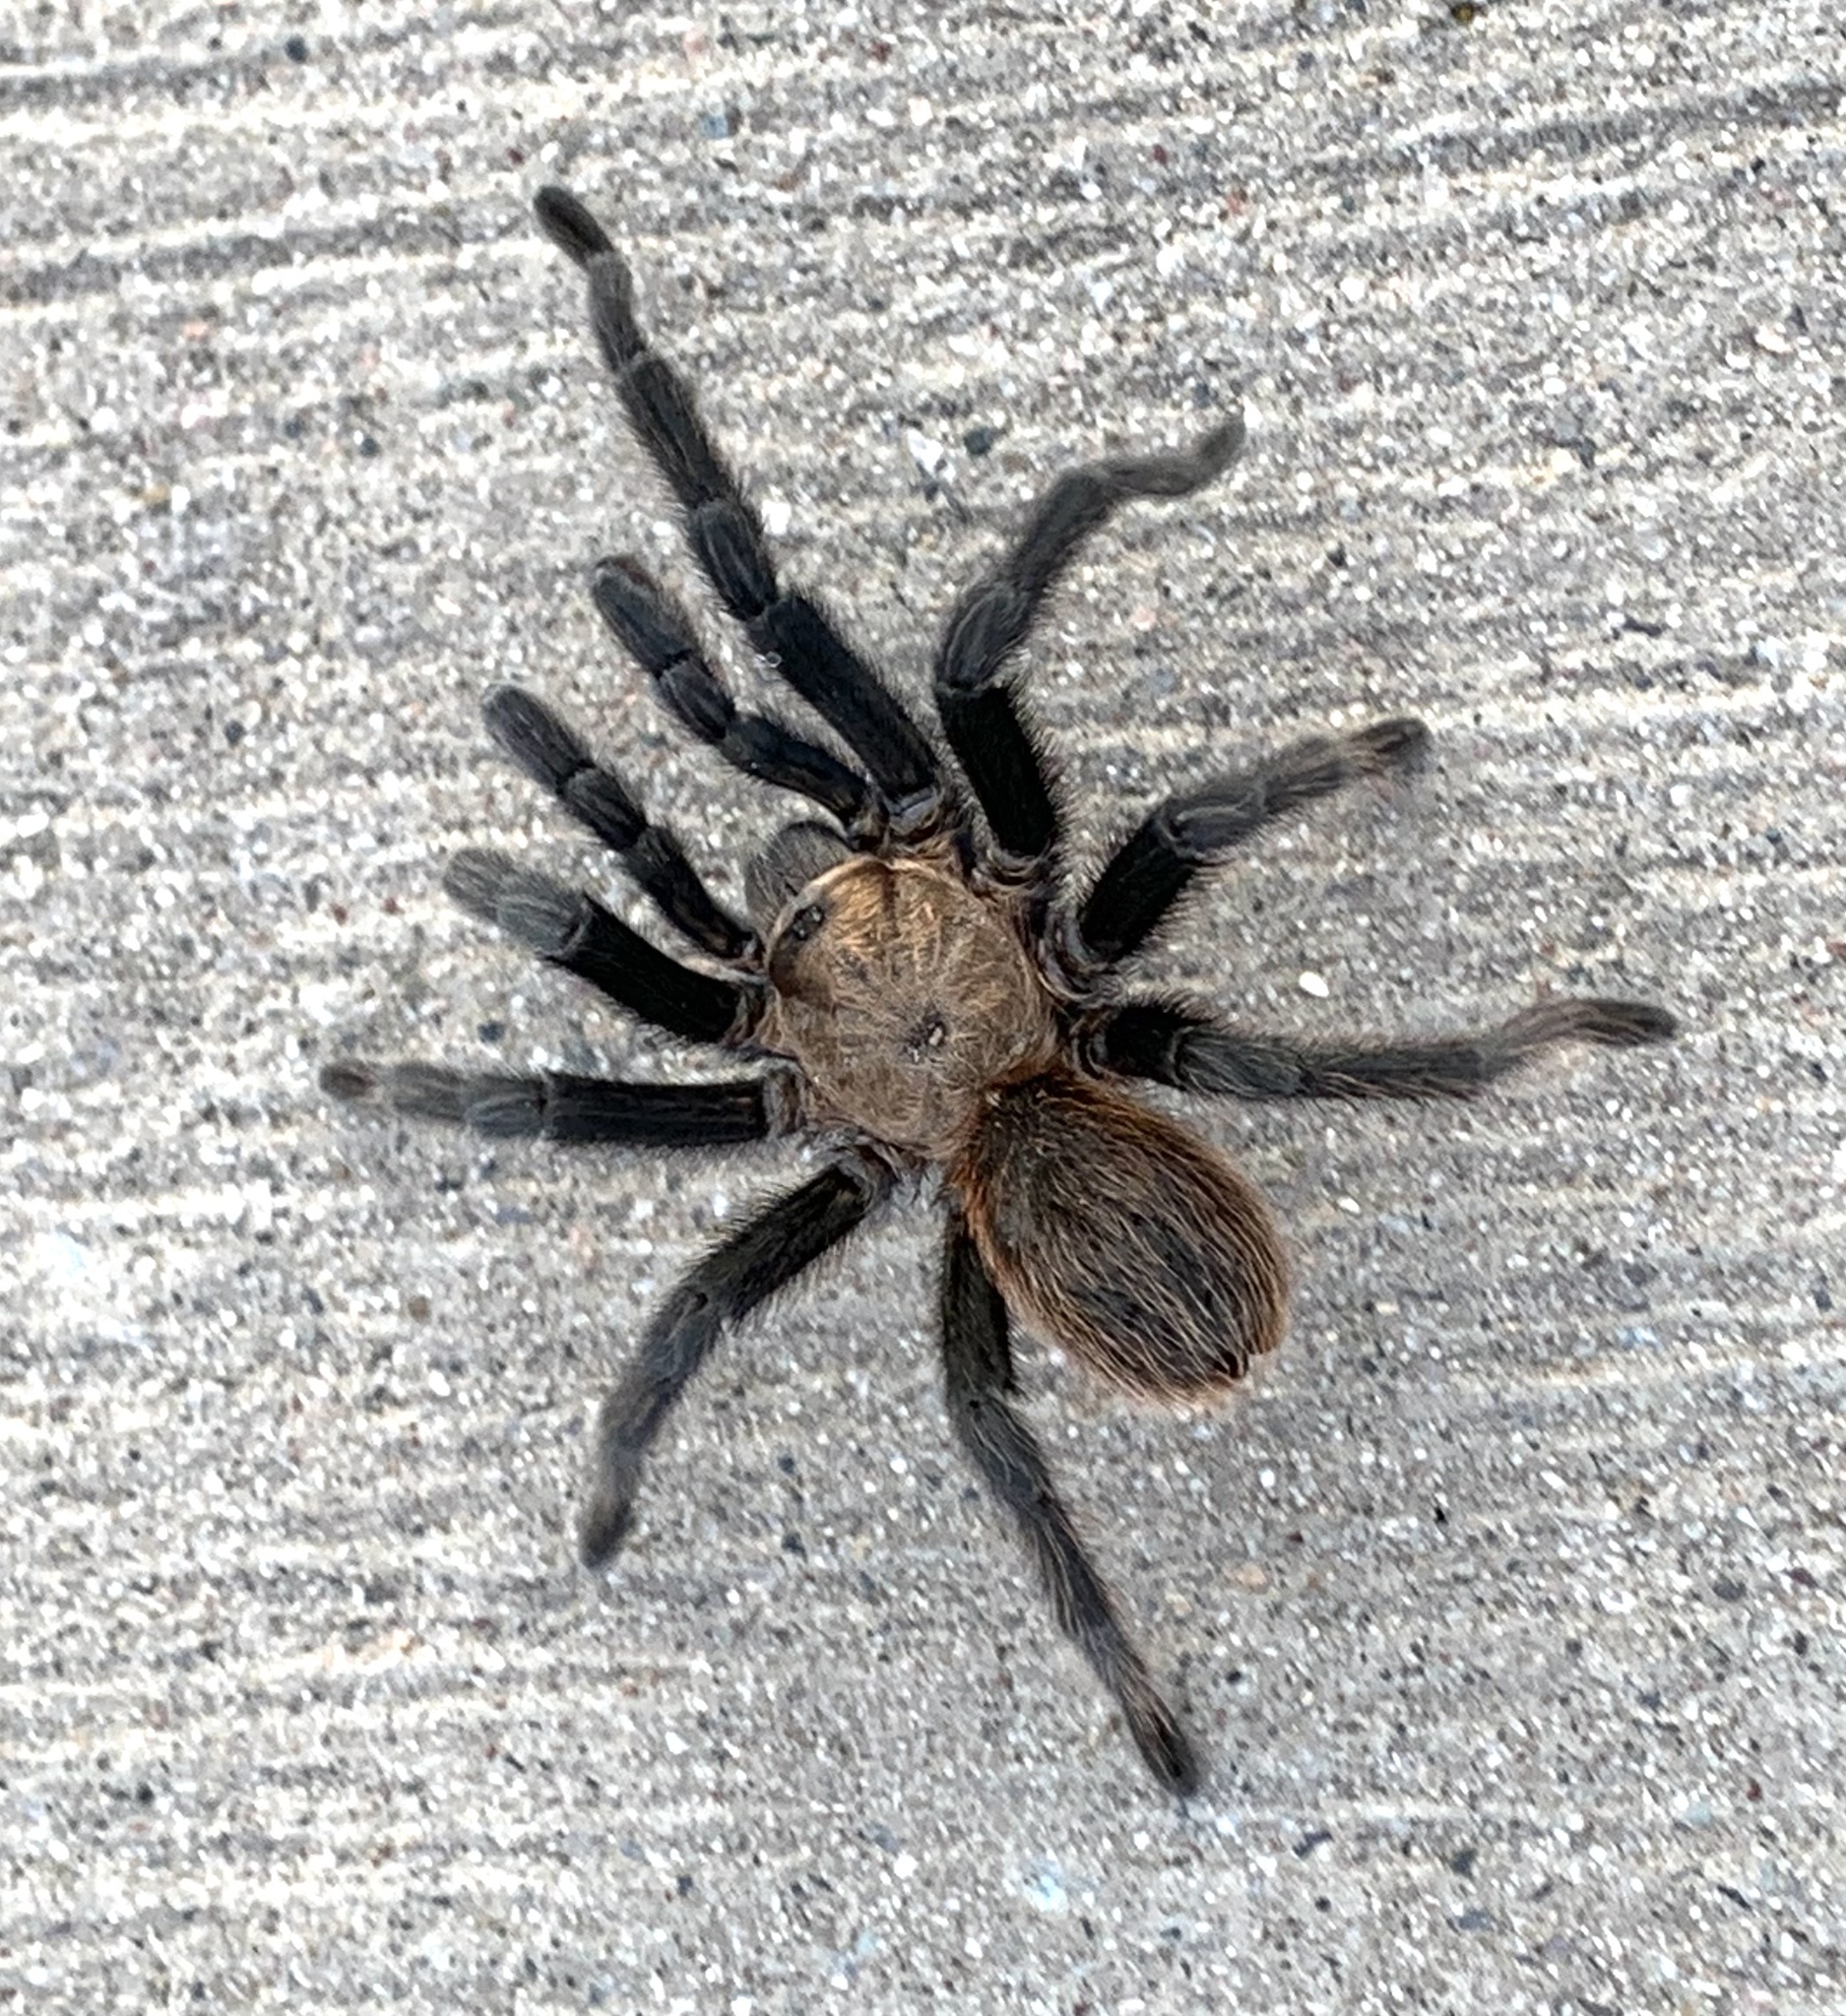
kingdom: Animalia
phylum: Arthropoda
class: Arachnida
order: Araneae
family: Theraphosidae
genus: Aphonopelma
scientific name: Aphonopelma hentzi
